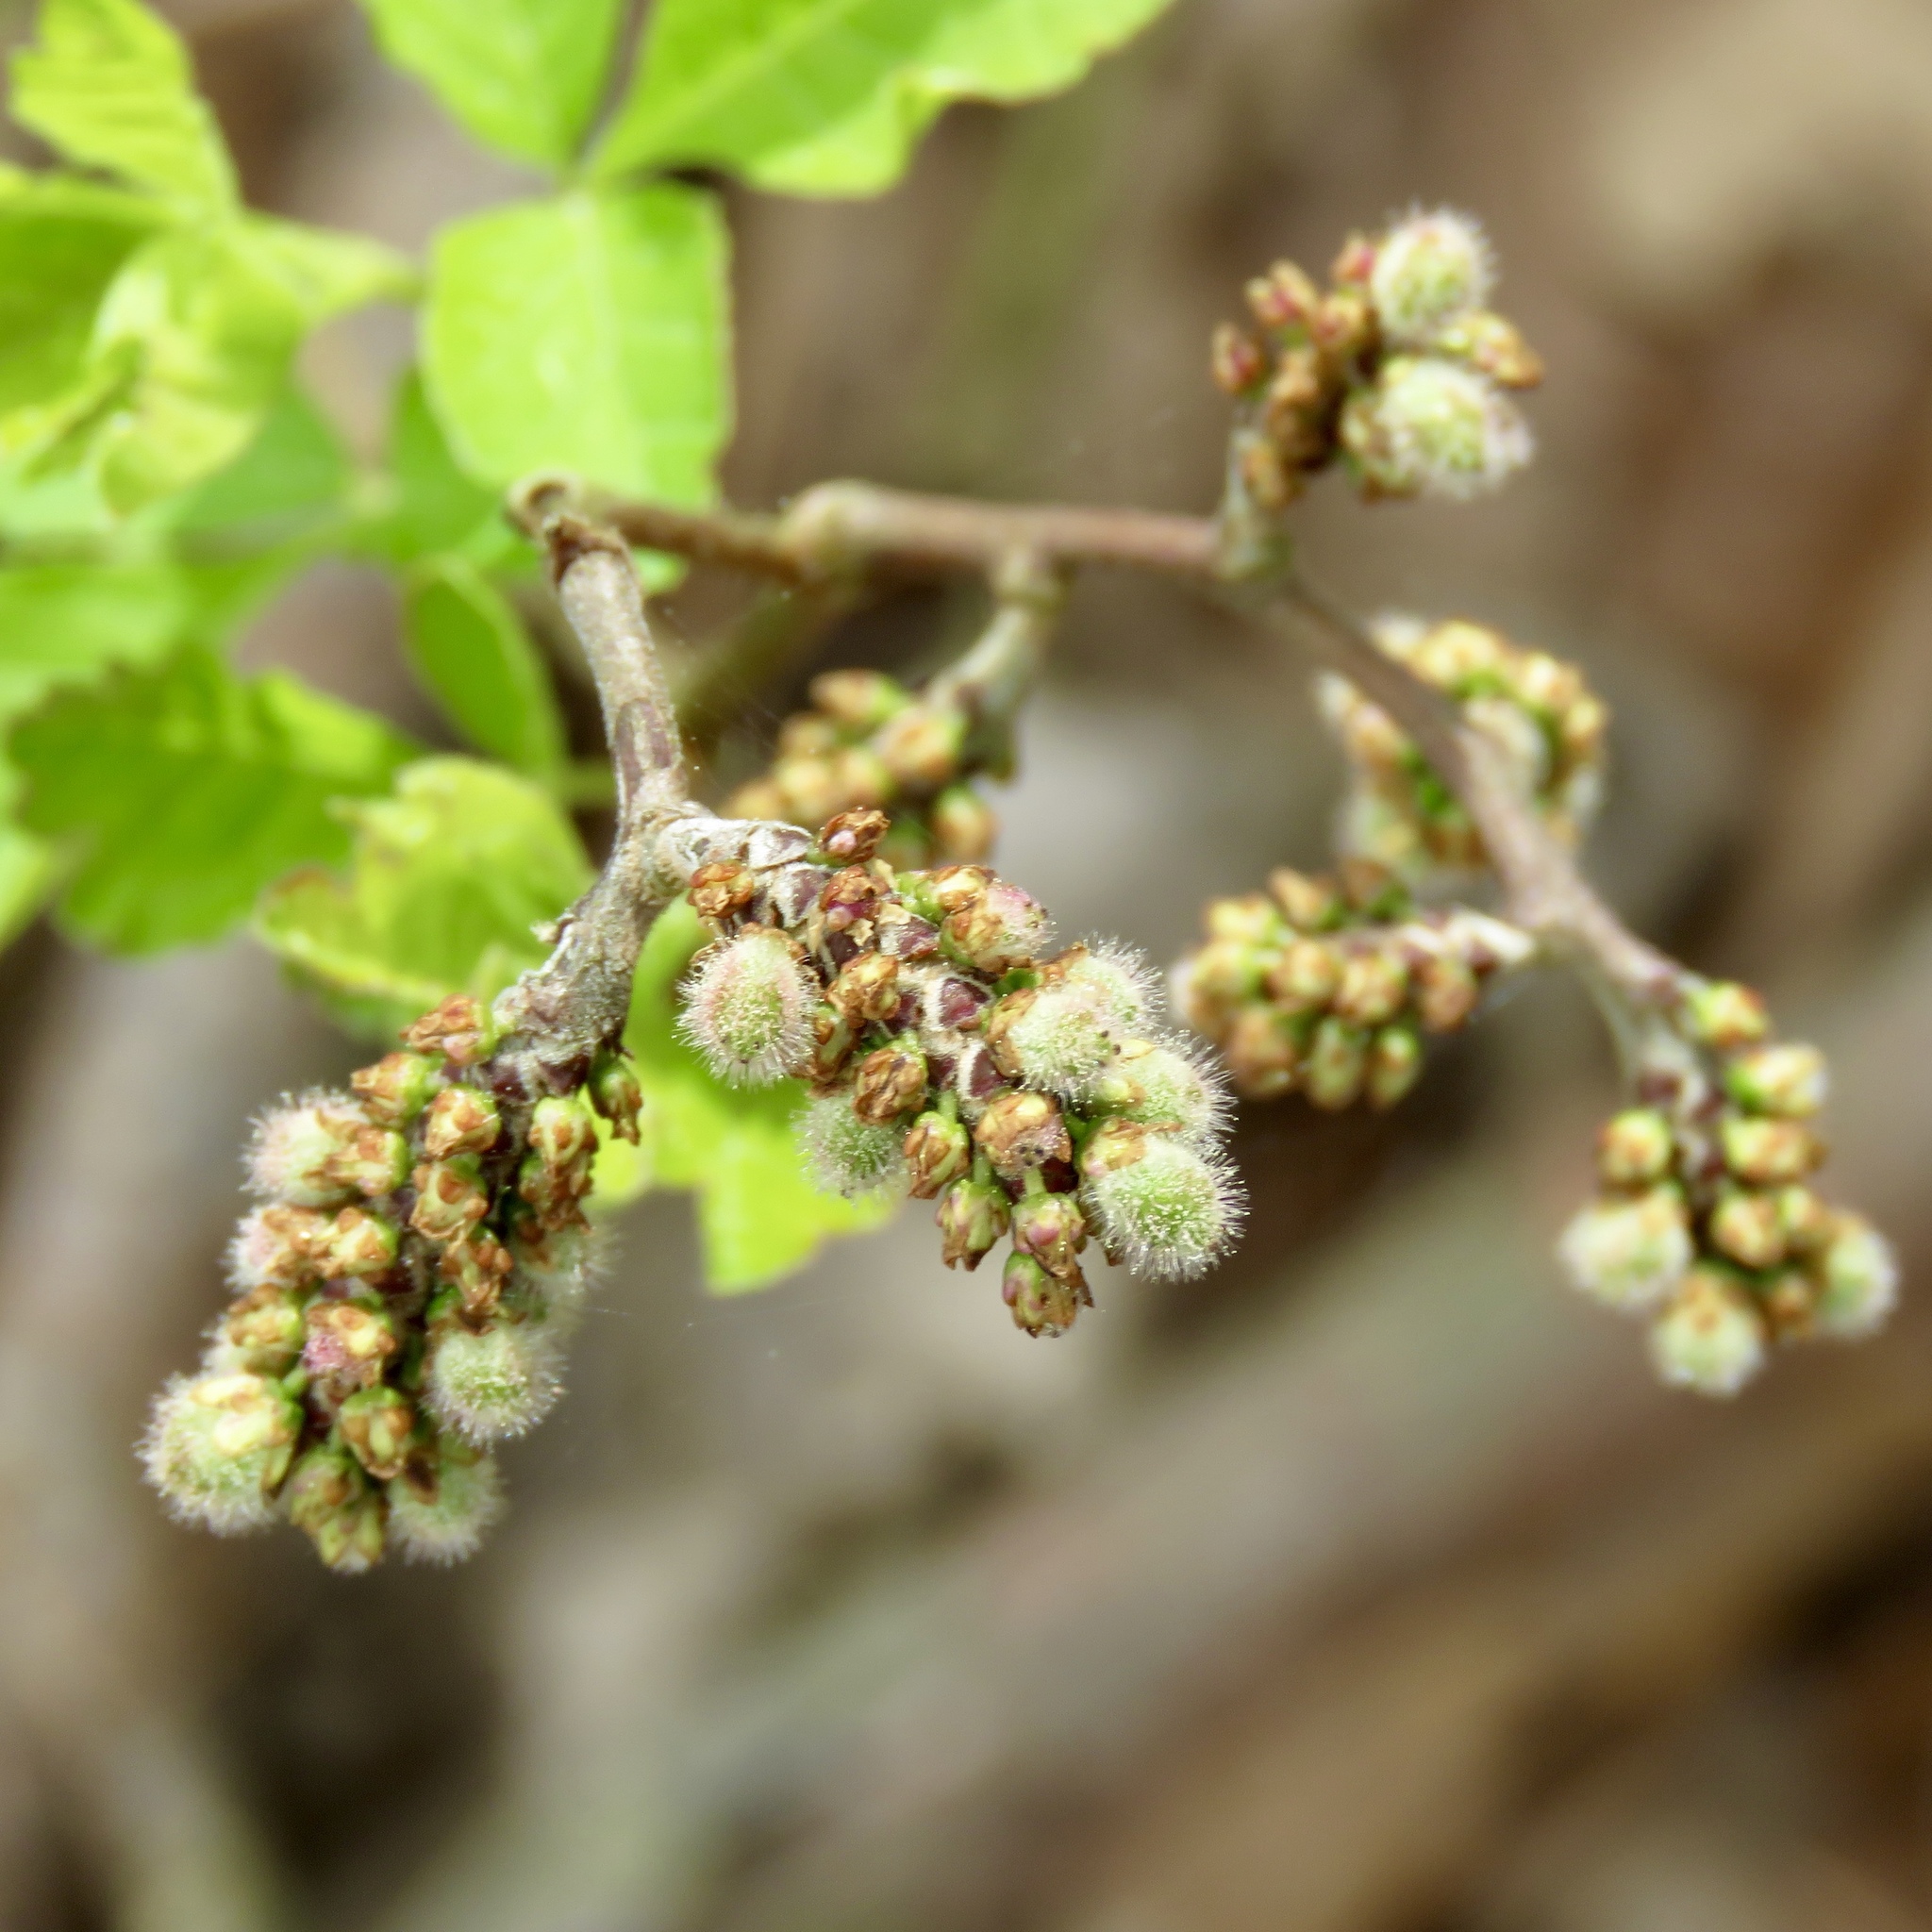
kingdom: Plantae
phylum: Tracheophyta
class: Magnoliopsida
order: Sapindales
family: Anacardiaceae
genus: Rhus
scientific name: Rhus aromatica
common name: Aromatic sumac
